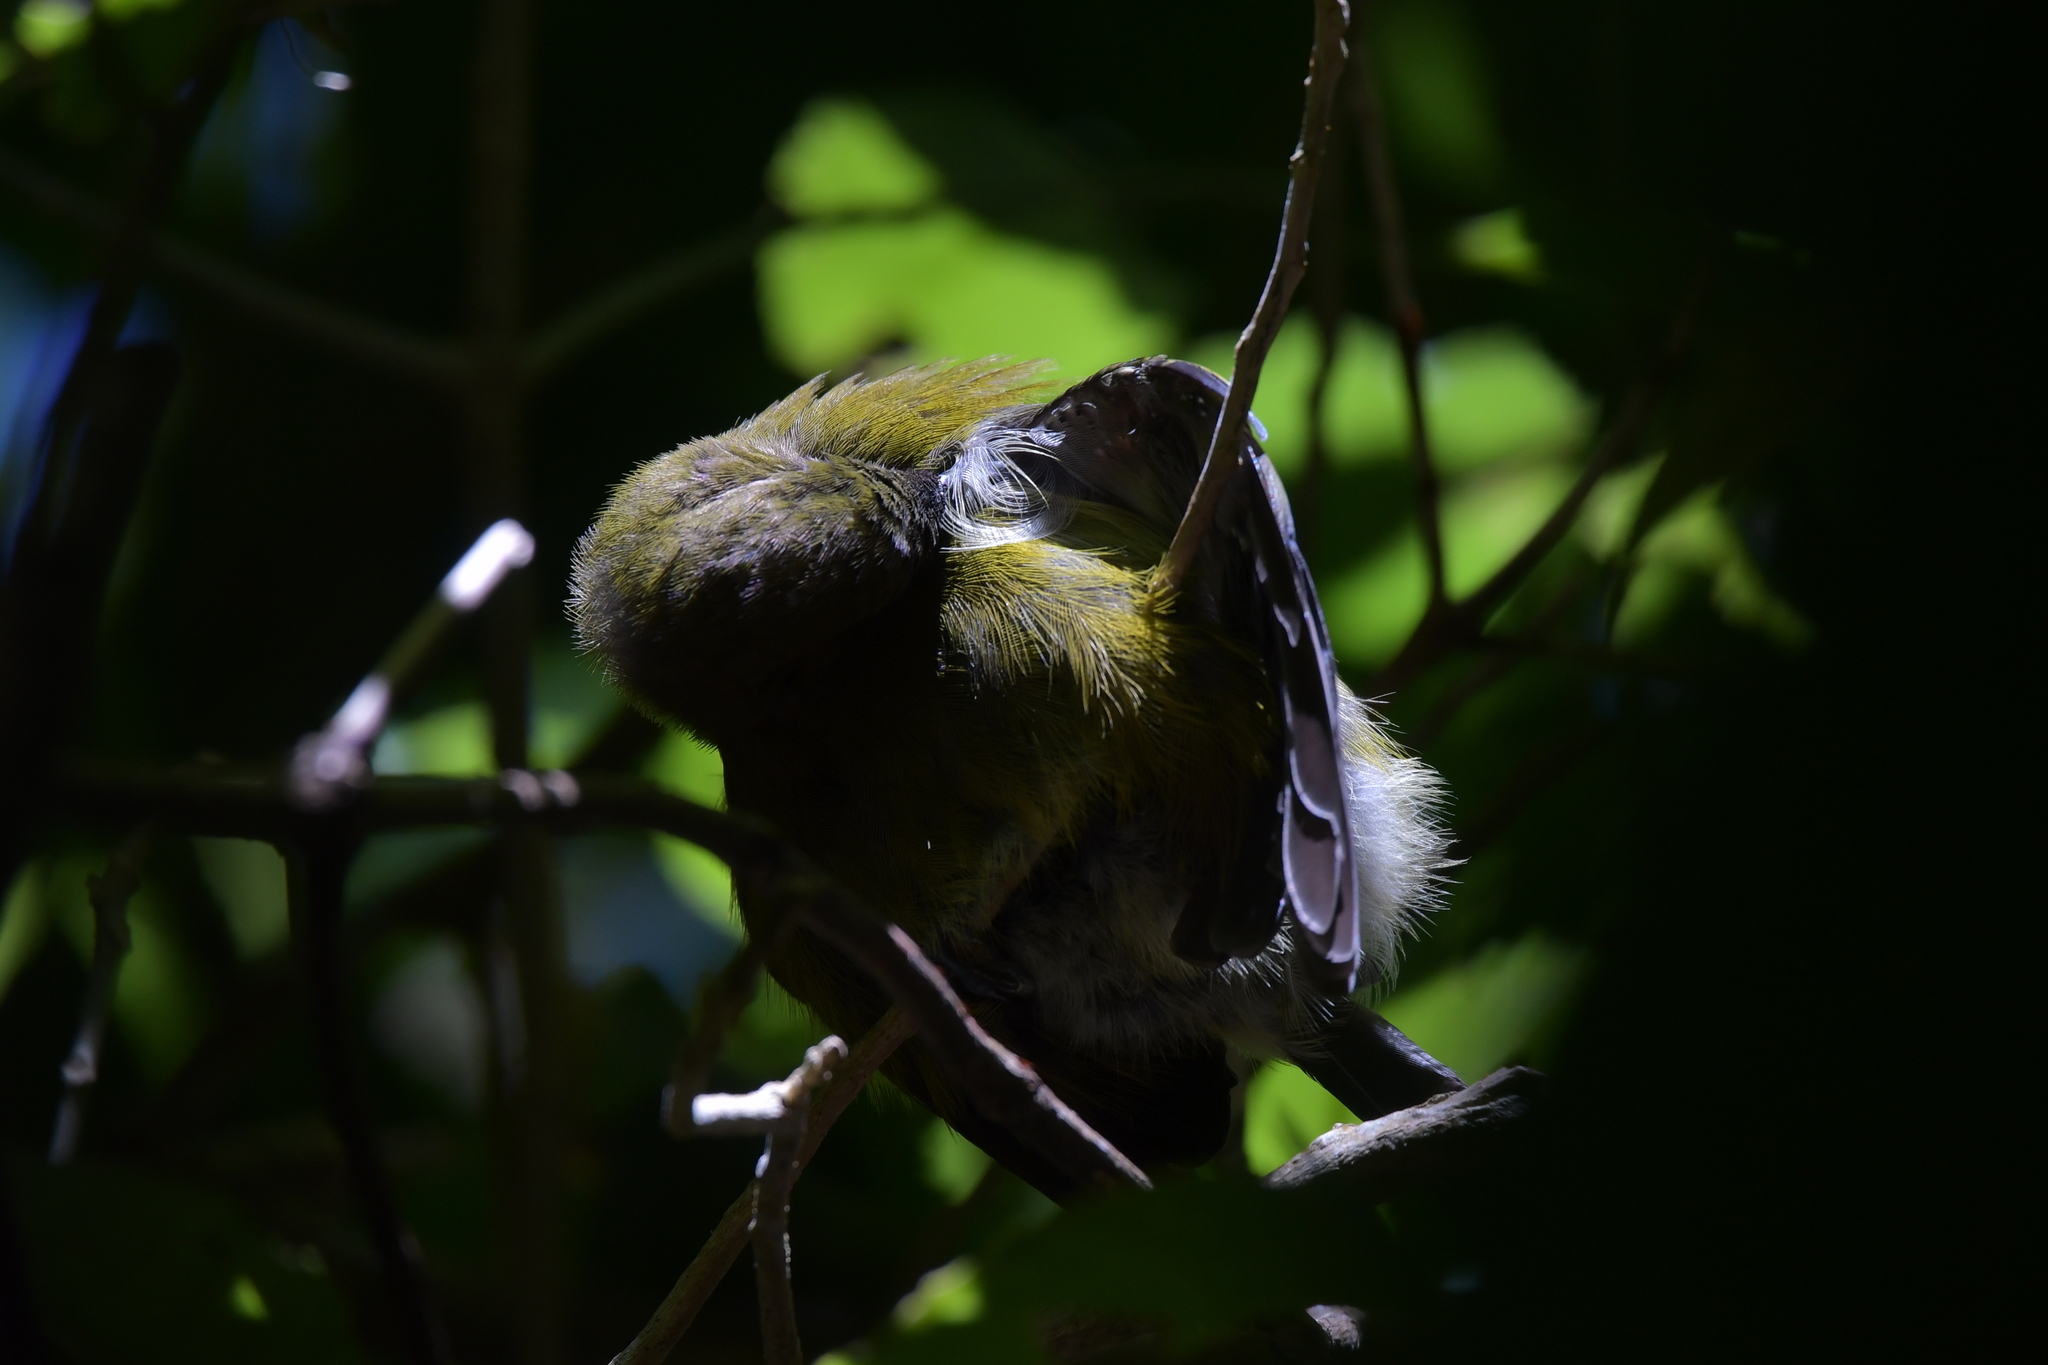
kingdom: Animalia
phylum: Chordata
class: Aves
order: Passeriformes
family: Meliphagidae
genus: Anthornis
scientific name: Anthornis melanura
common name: New zealand bellbird
